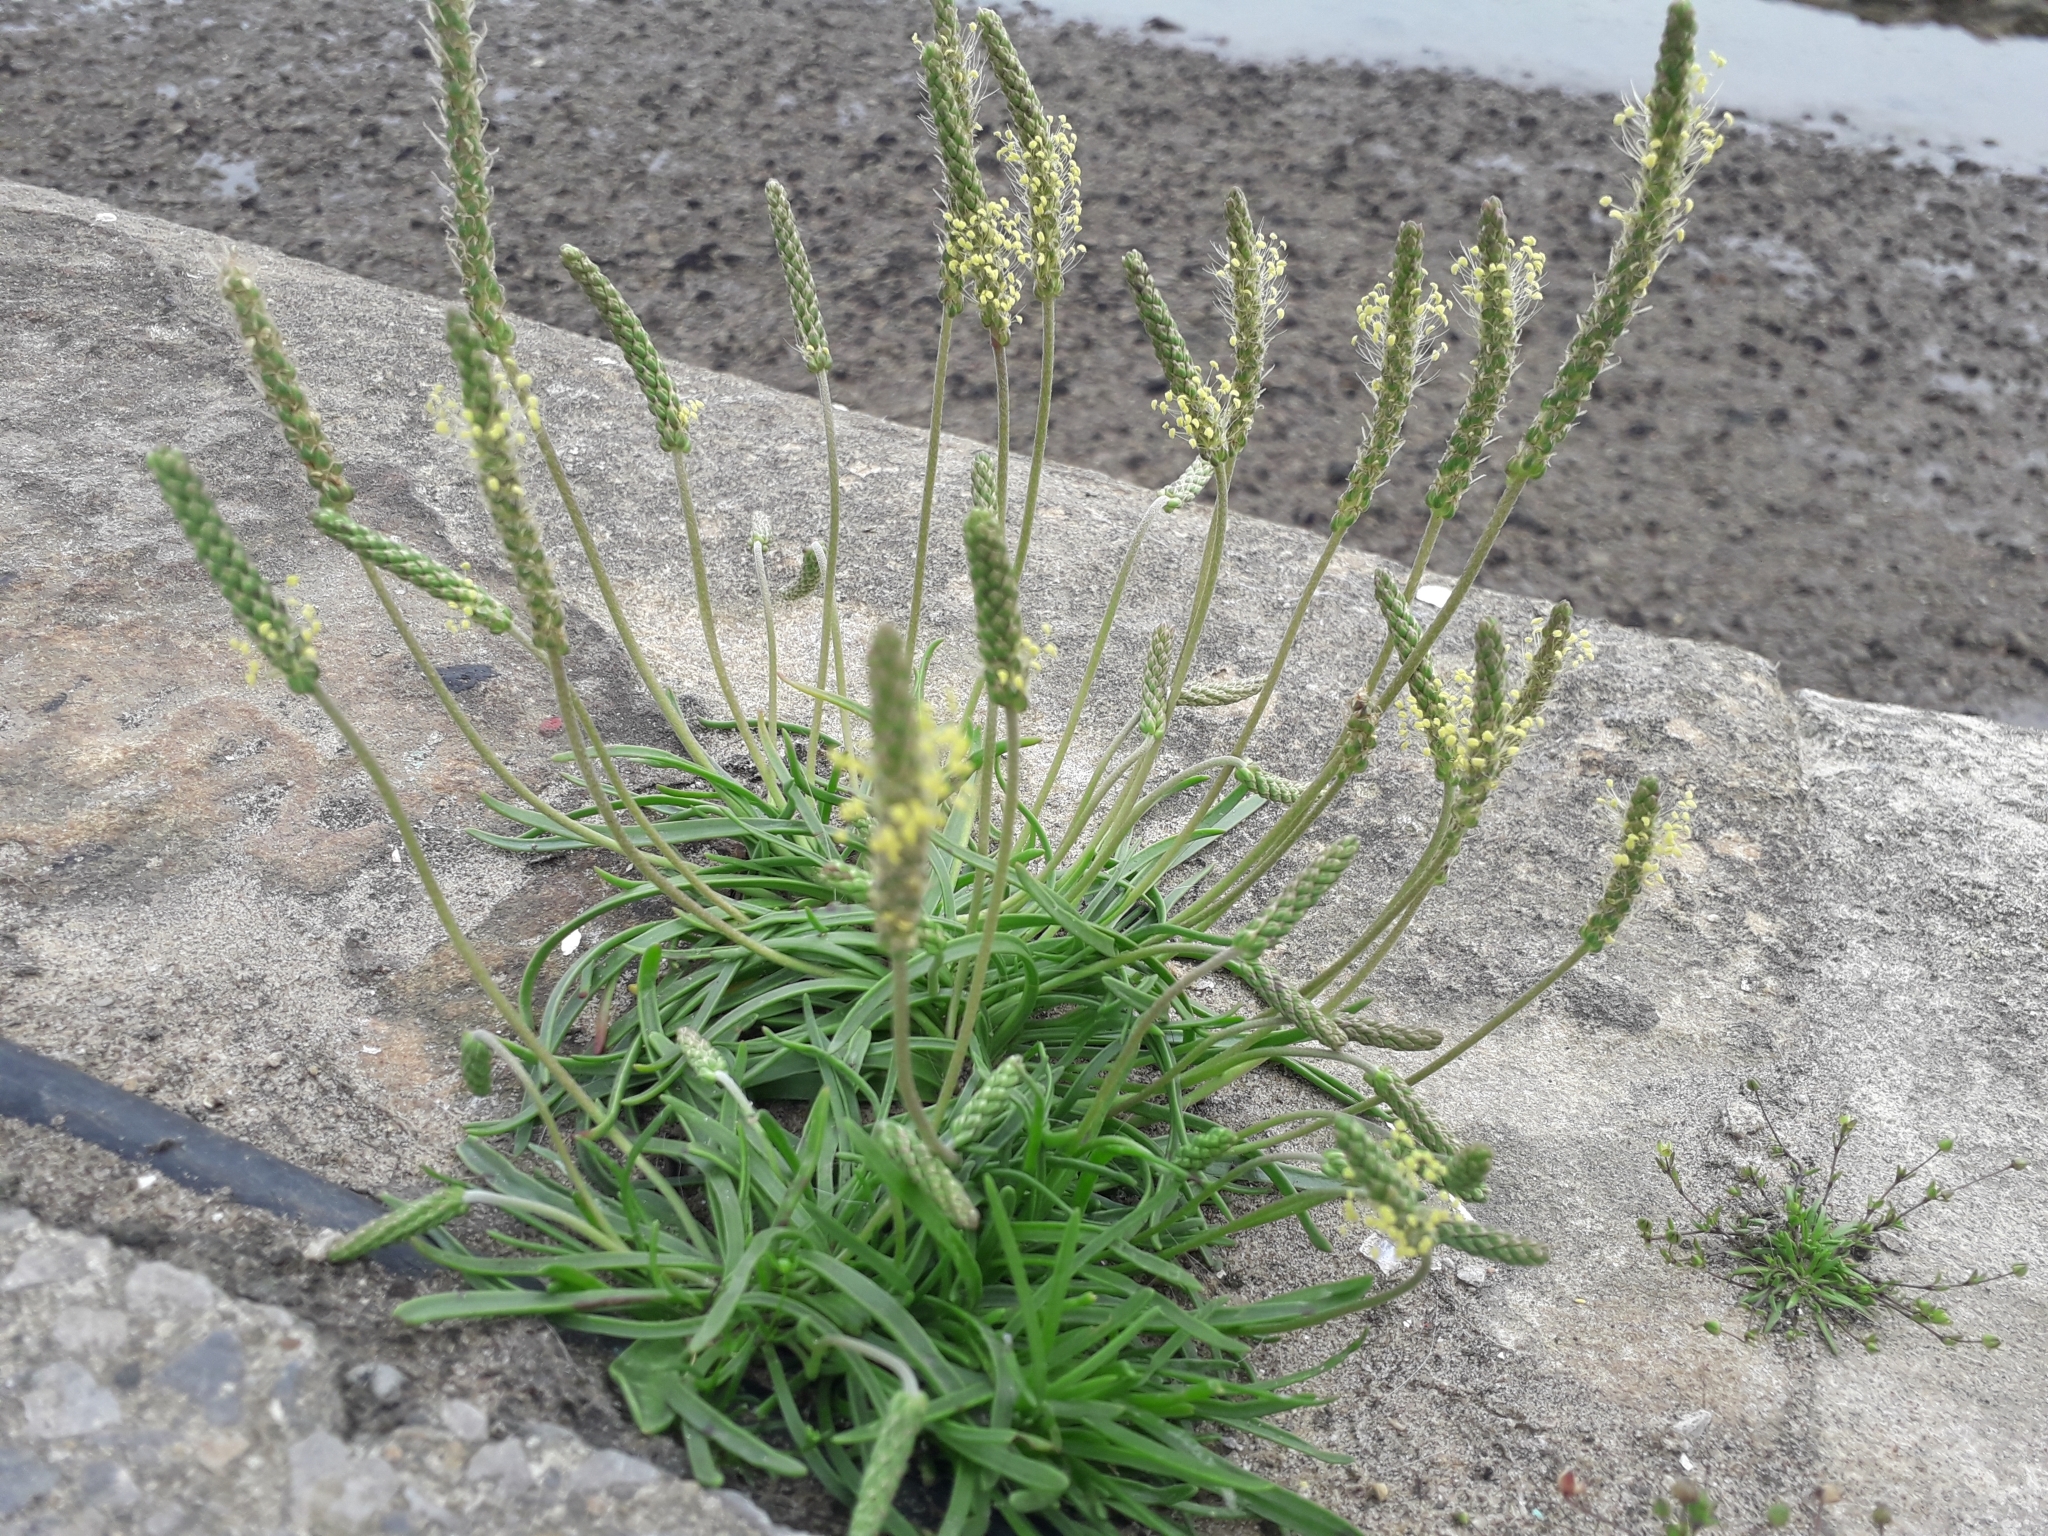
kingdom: Plantae
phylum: Tracheophyta
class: Magnoliopsida
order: Lamiales
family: Plantaginaceae
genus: Plantago
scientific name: Plantago maritima
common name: Sea plantain
